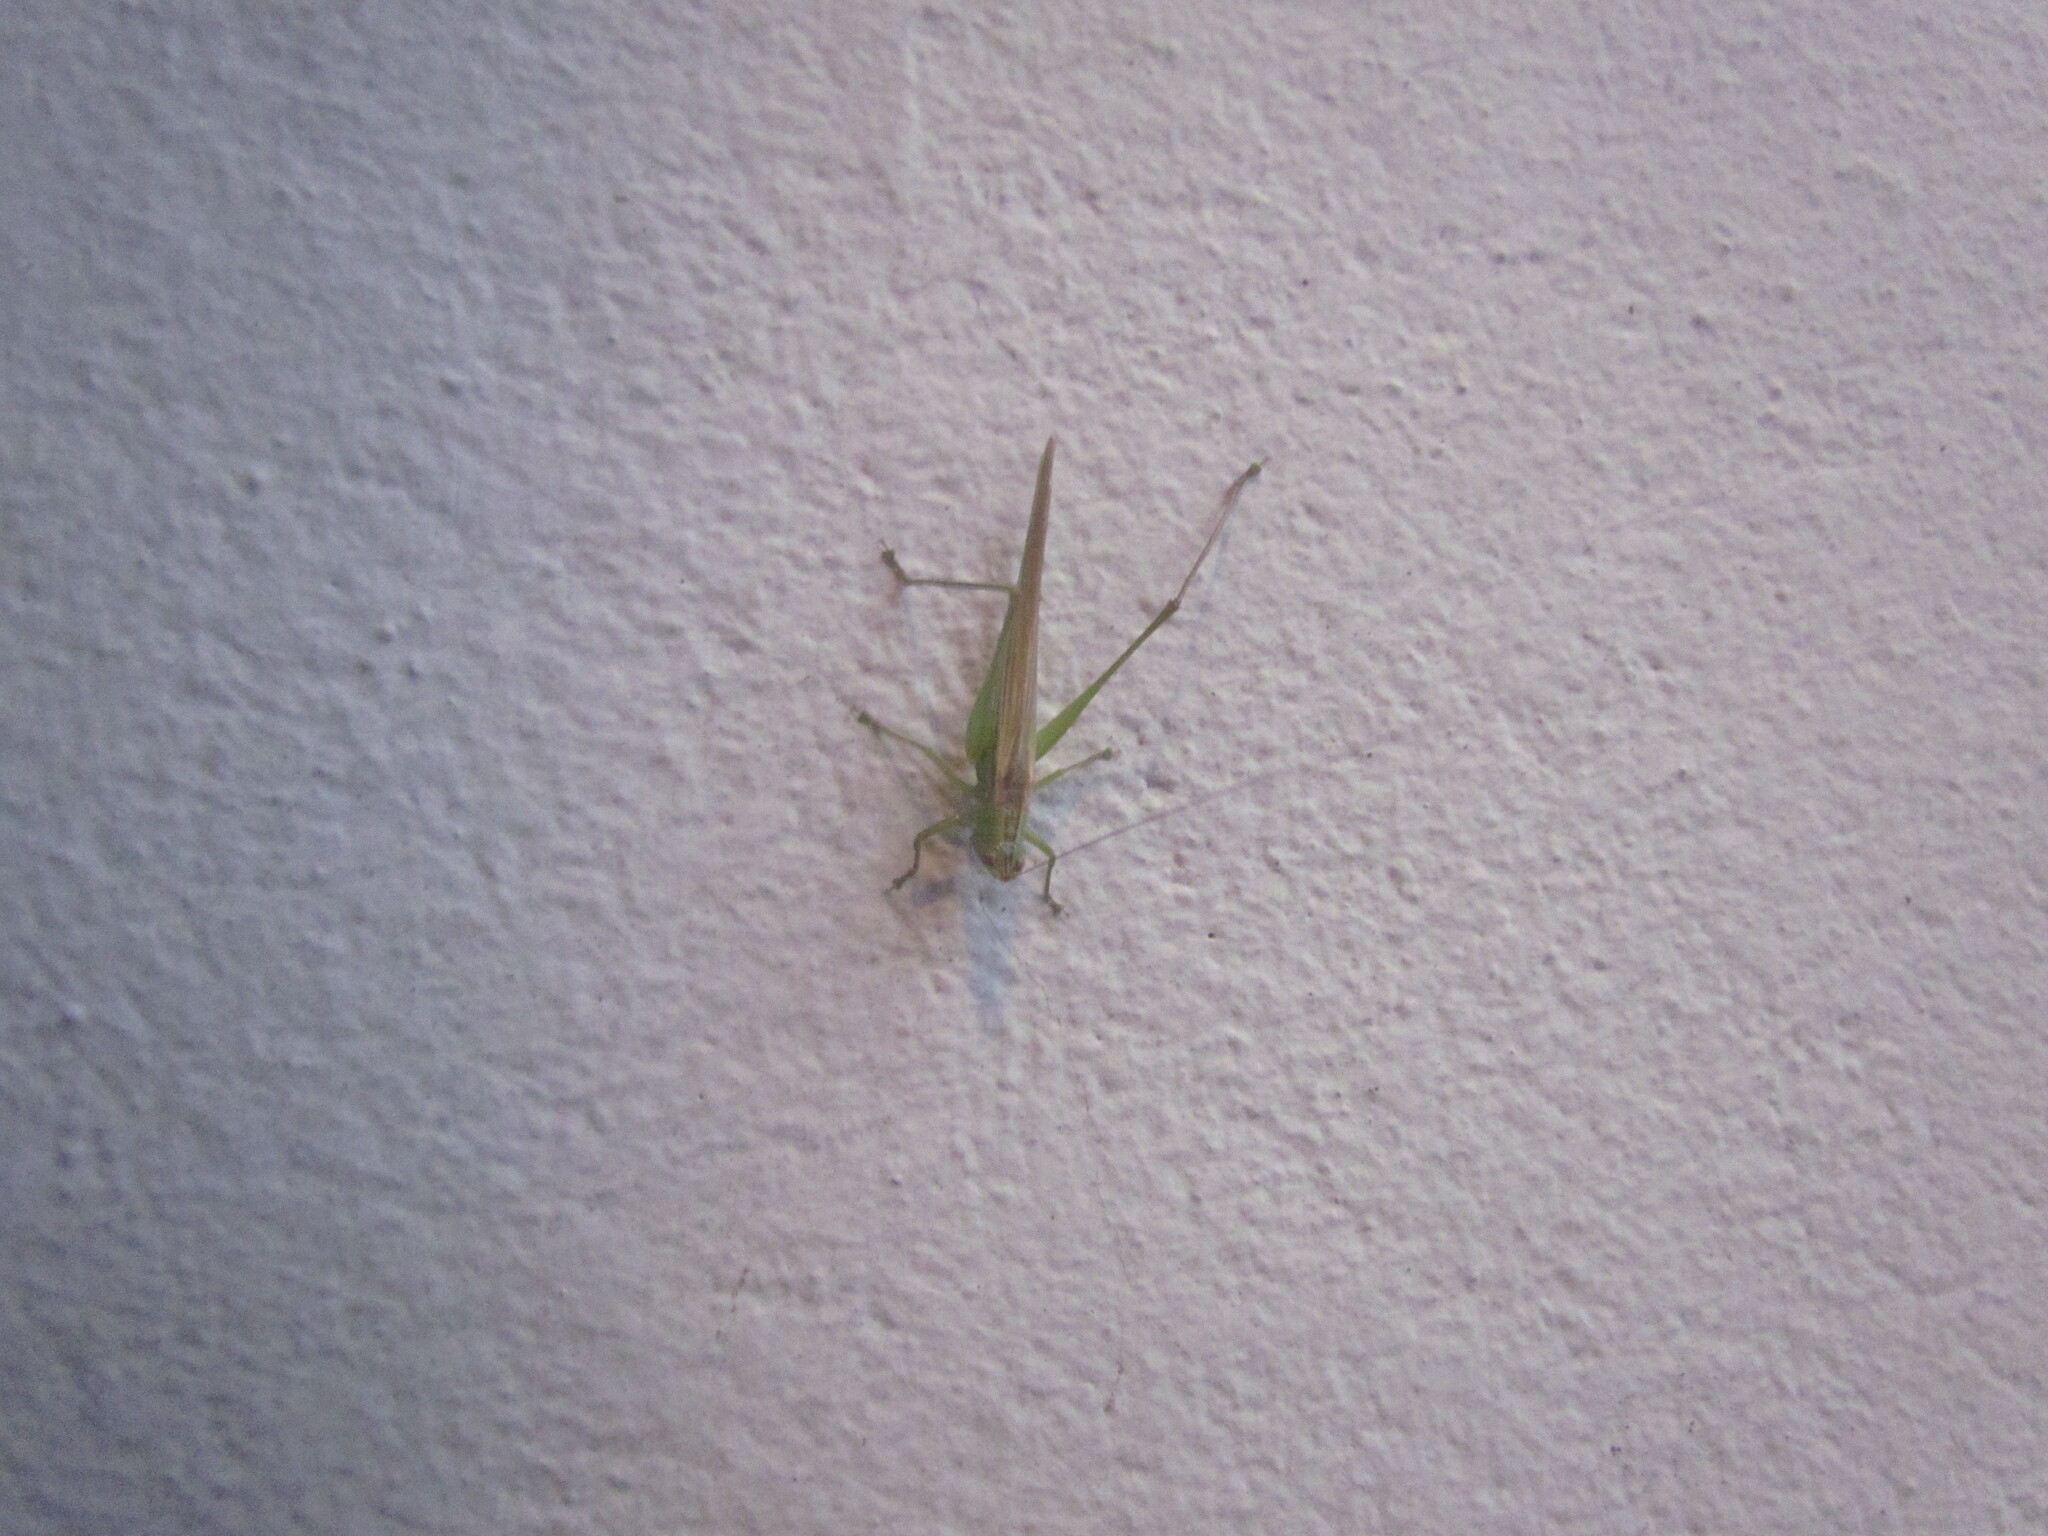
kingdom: Animalia
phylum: Arthropoda
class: Insecta
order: Orthoptera
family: Tettigoniidae
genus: Conocephalus
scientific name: Conocephalus longipes
